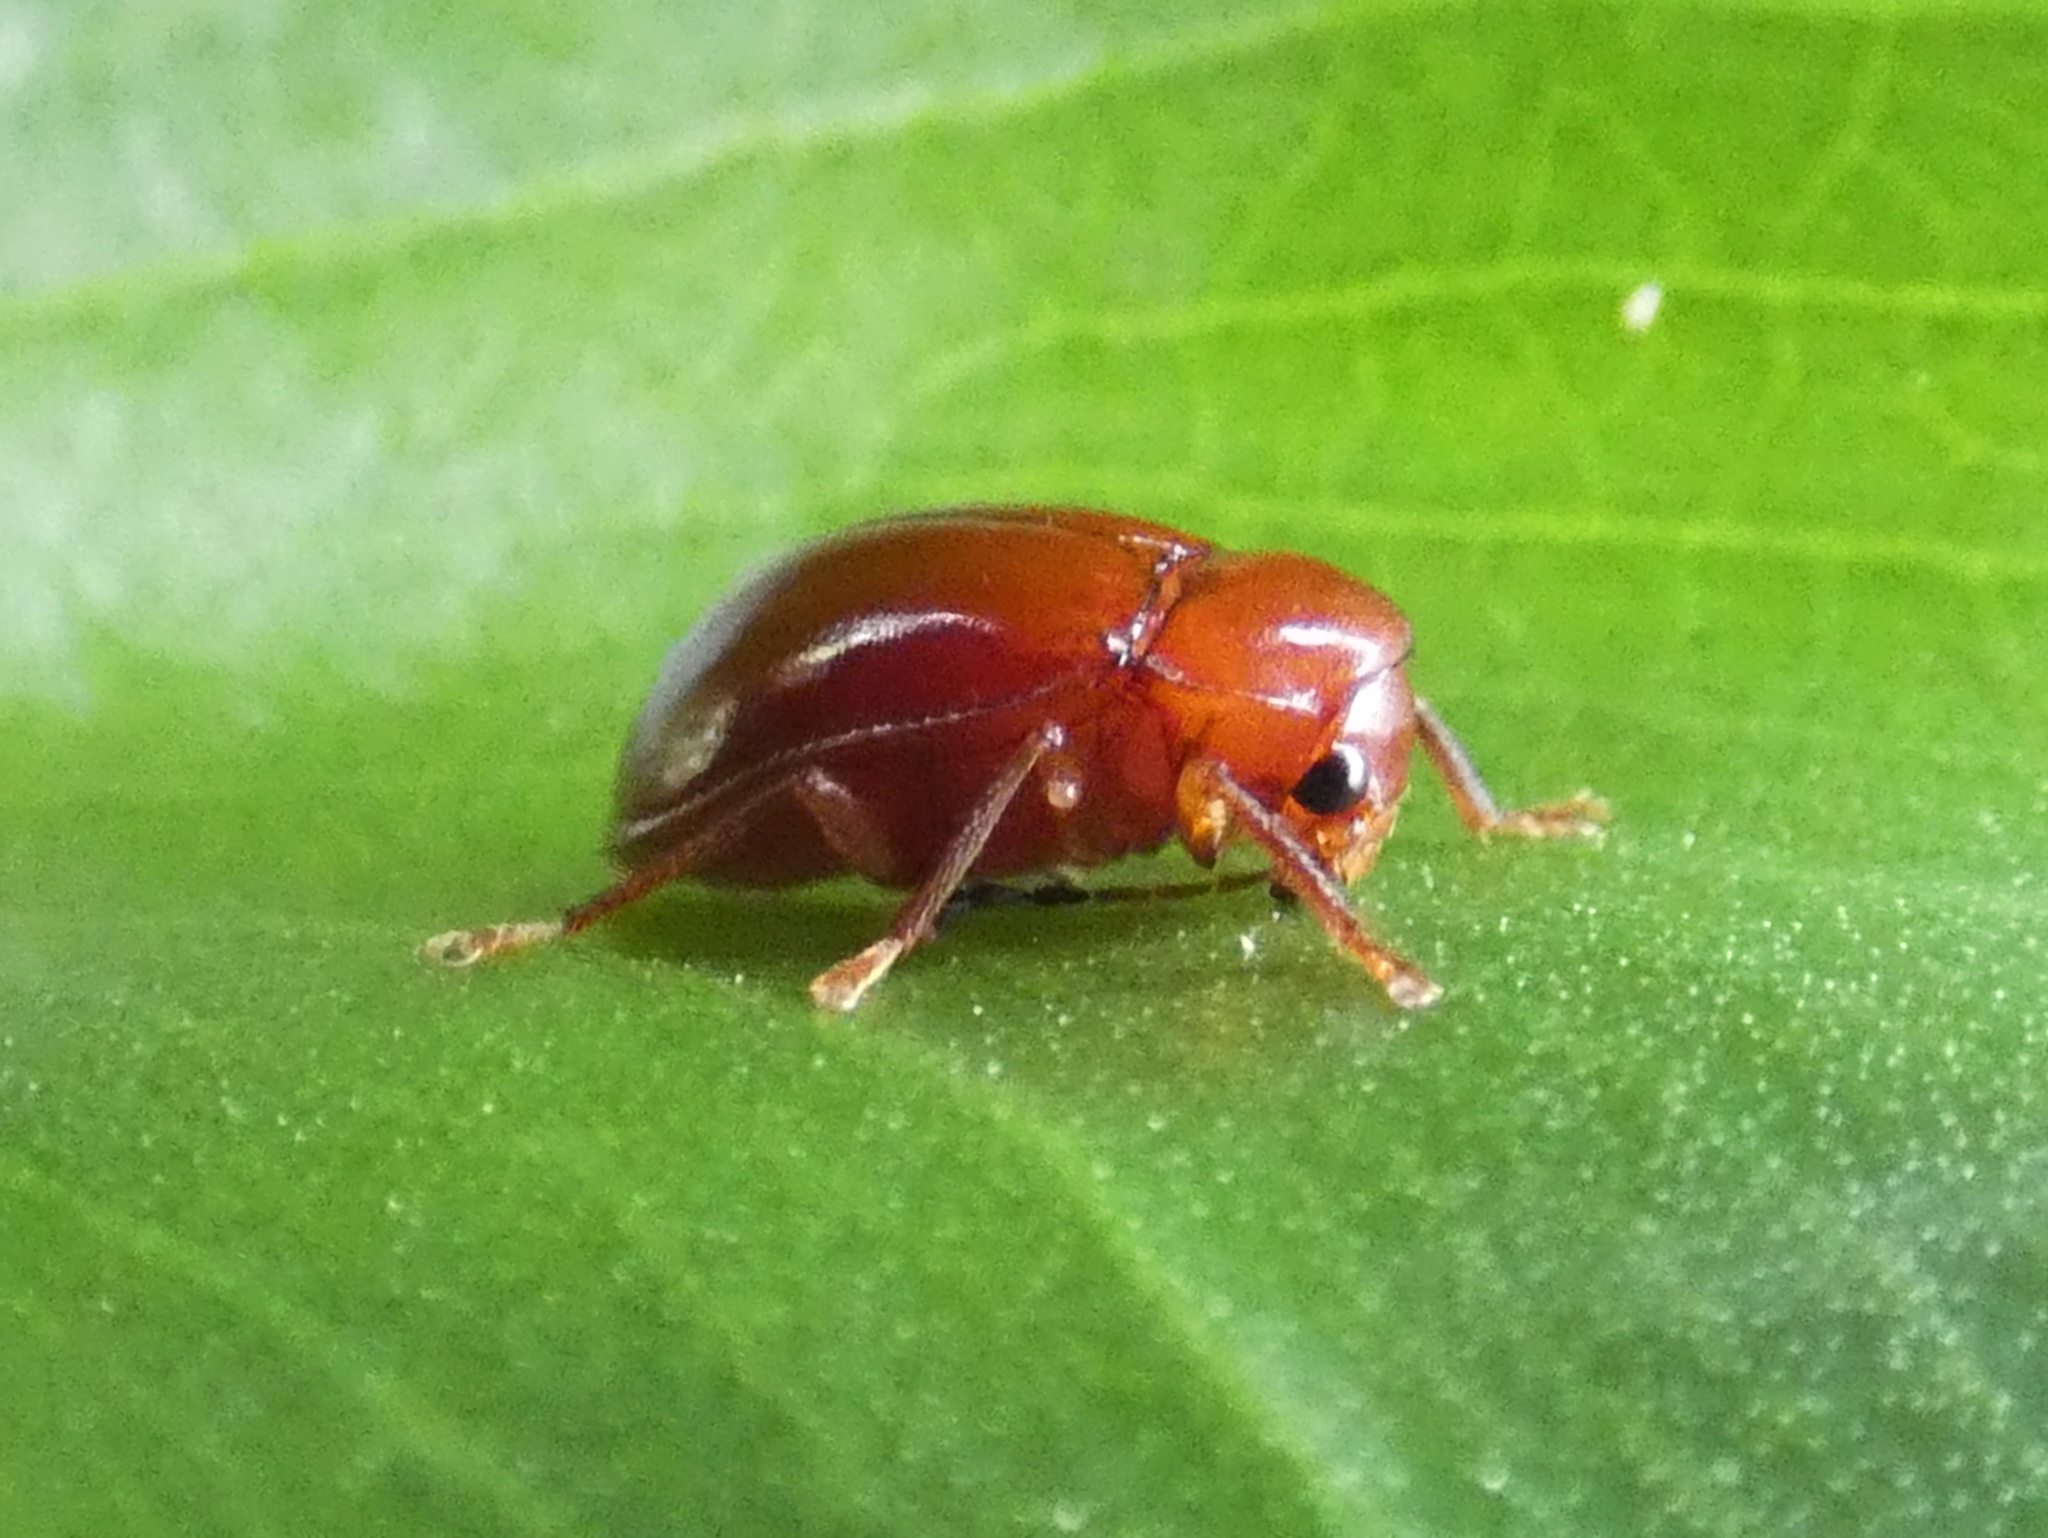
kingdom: Animalia
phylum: Arthropoda
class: Insecta
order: Coleoptera
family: Ptilodactylidae
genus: Ptilodactyla
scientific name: Ptilodactyla
